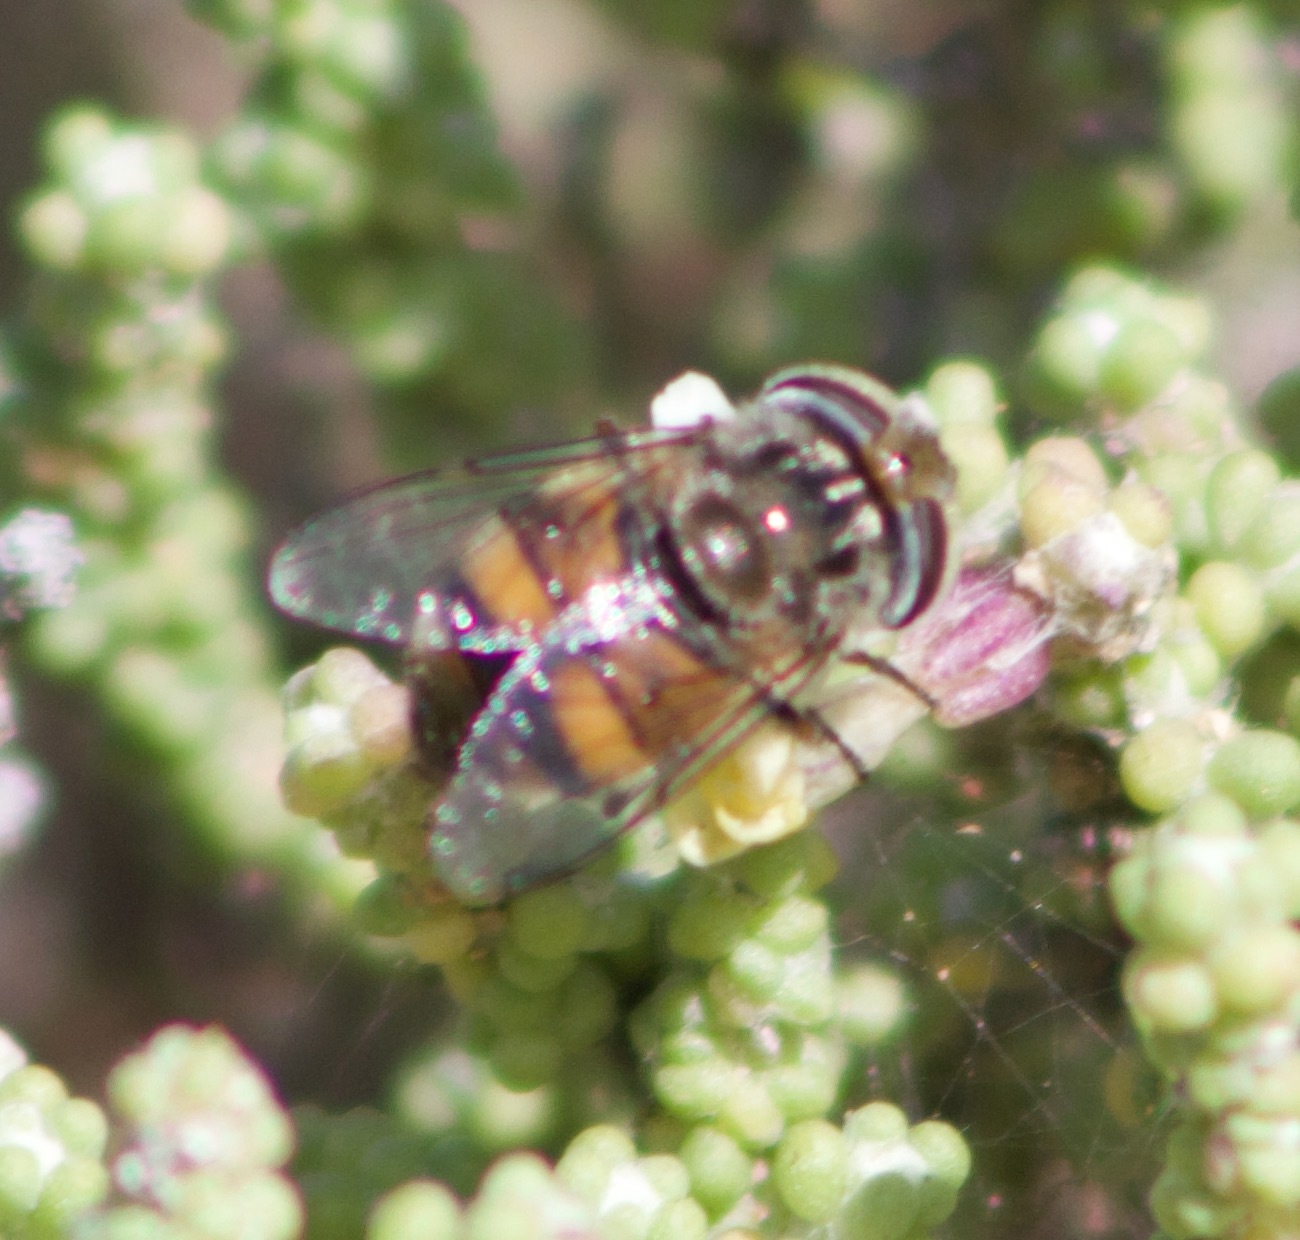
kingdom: Animalia
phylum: Arthropoda
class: Insecta
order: Diptera
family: Syrphidae
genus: Copestylum
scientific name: Copestylum escomeli
